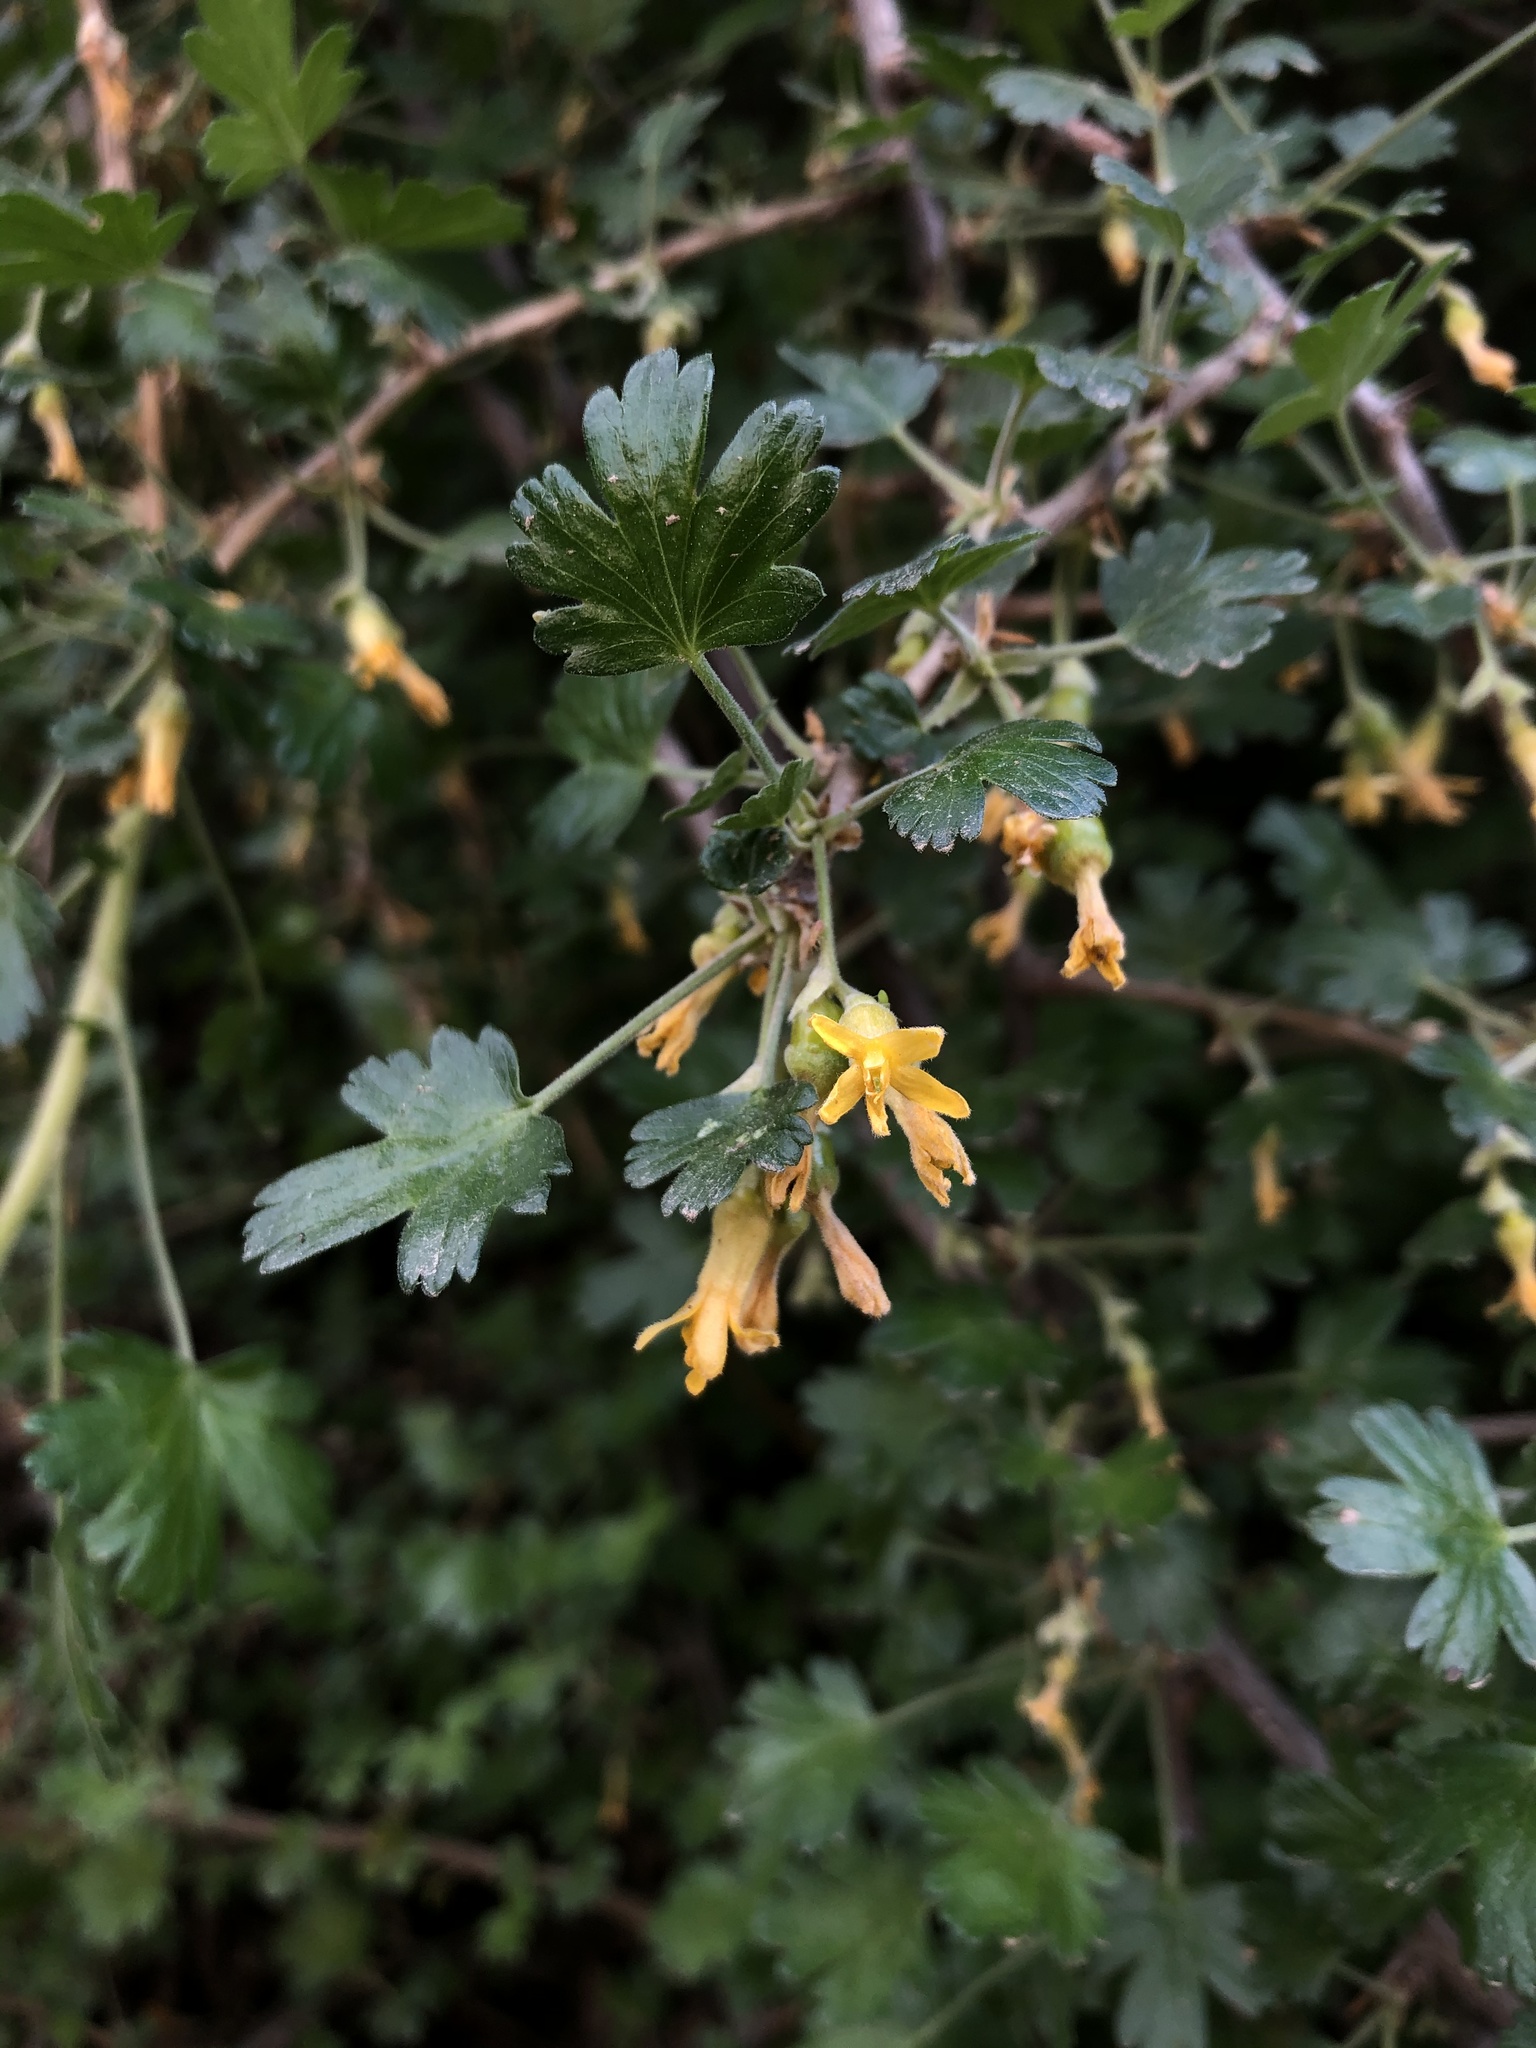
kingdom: Plantae
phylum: Tracheophyta
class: Magnoliopsida
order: Saxifragales
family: Grossulariaceae
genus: Ribes
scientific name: Ribes quercetorum
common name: Oak gooseberry
